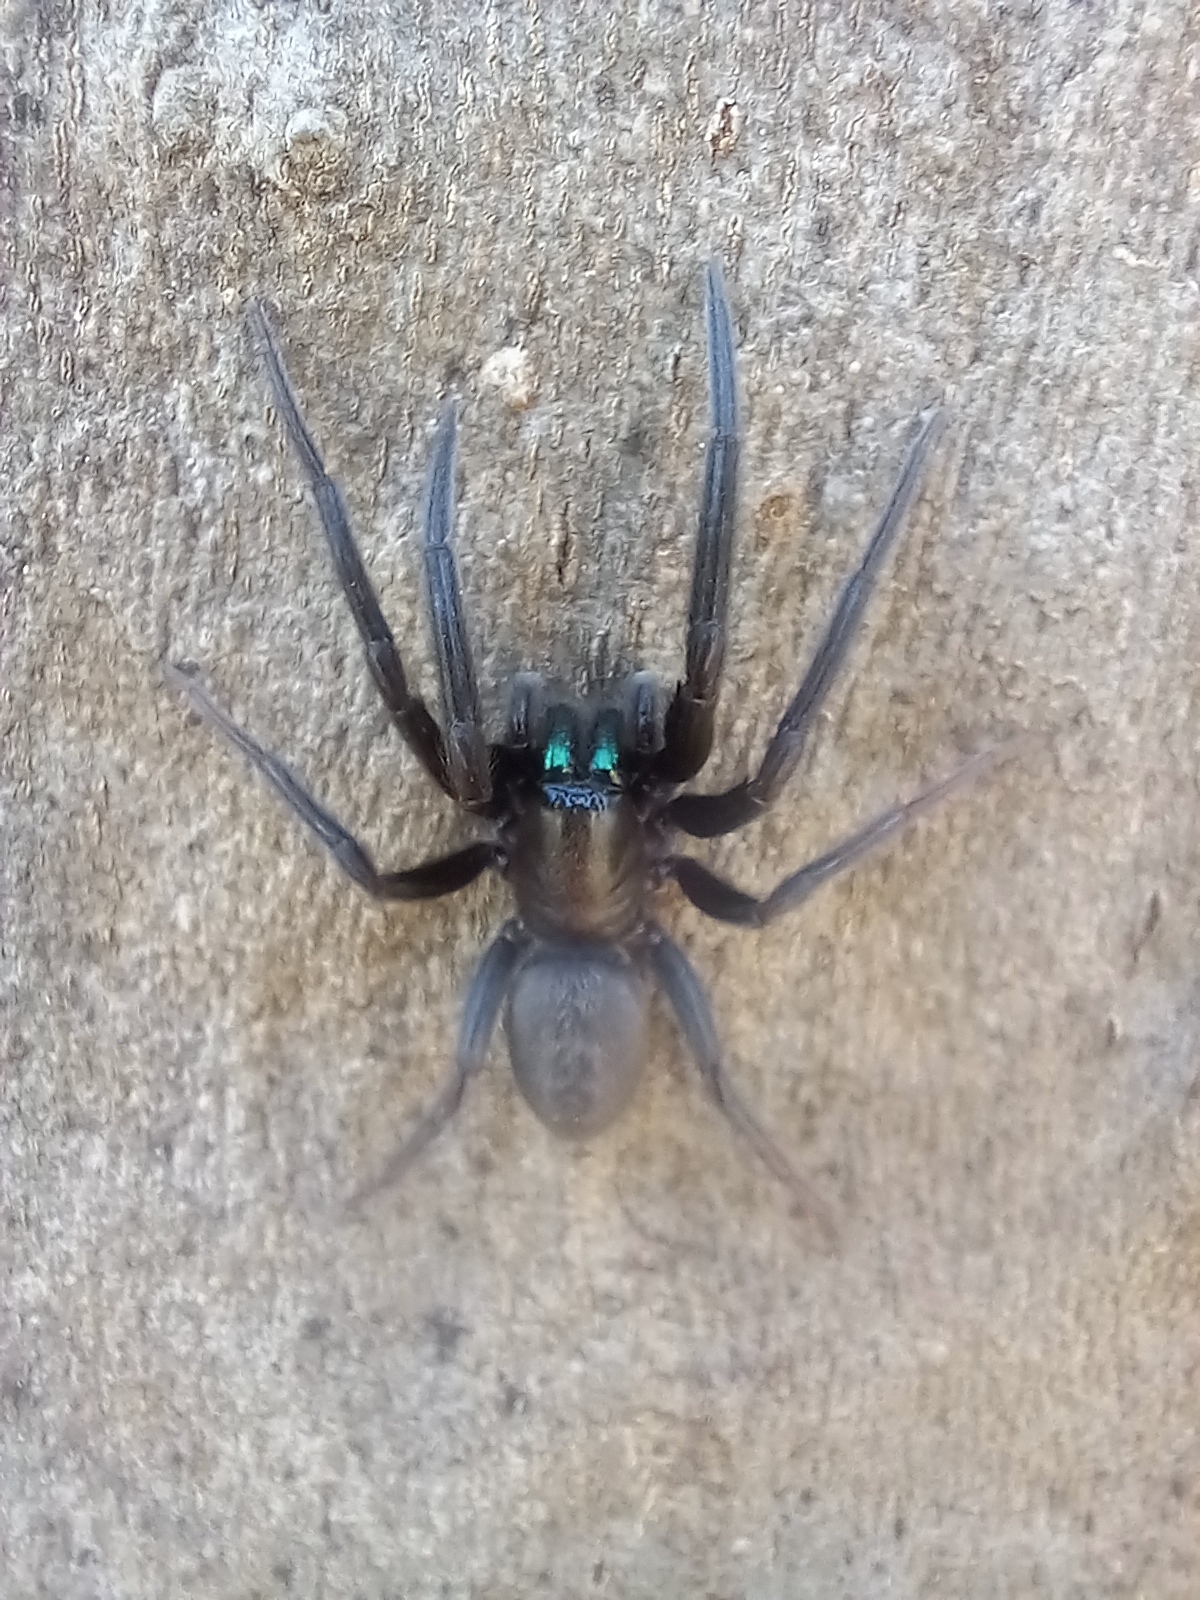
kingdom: Animalia
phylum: Arthropoda
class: Arachnida
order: Araneae
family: Segestriidae
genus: Segestria
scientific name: Segestria florentina
